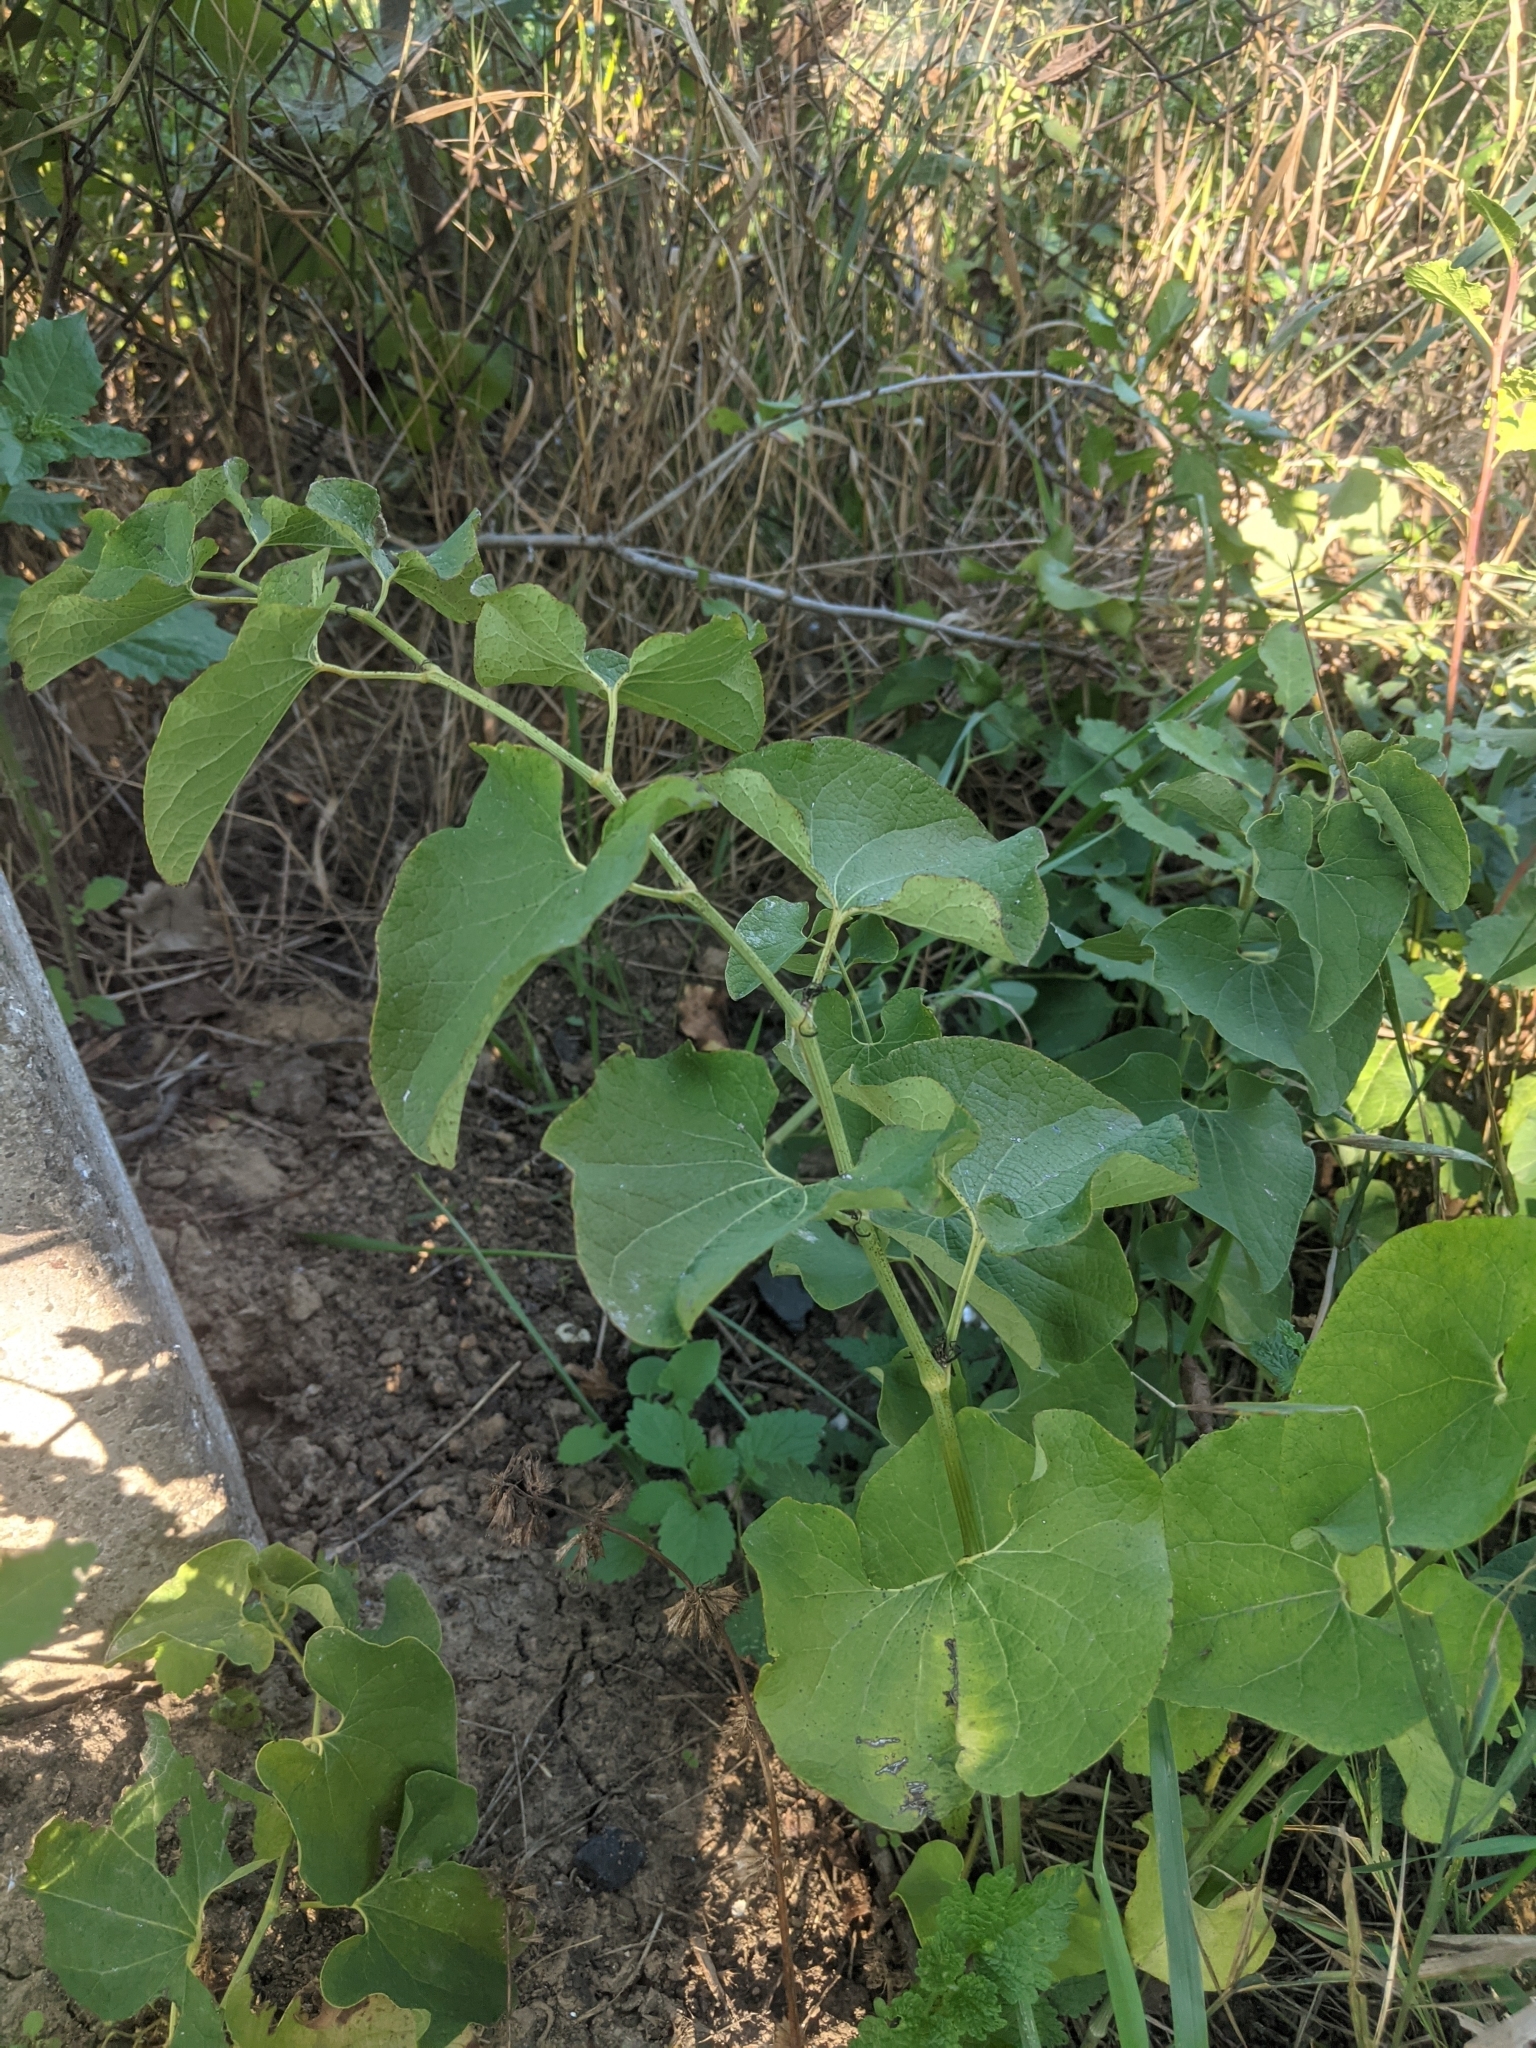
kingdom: Plantae
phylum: Tracheophyta
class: Magnoliopsida
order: Piperales
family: Aristolochiaceae
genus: Aristolochia
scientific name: Aristolochia clematitis
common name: Birthwort
